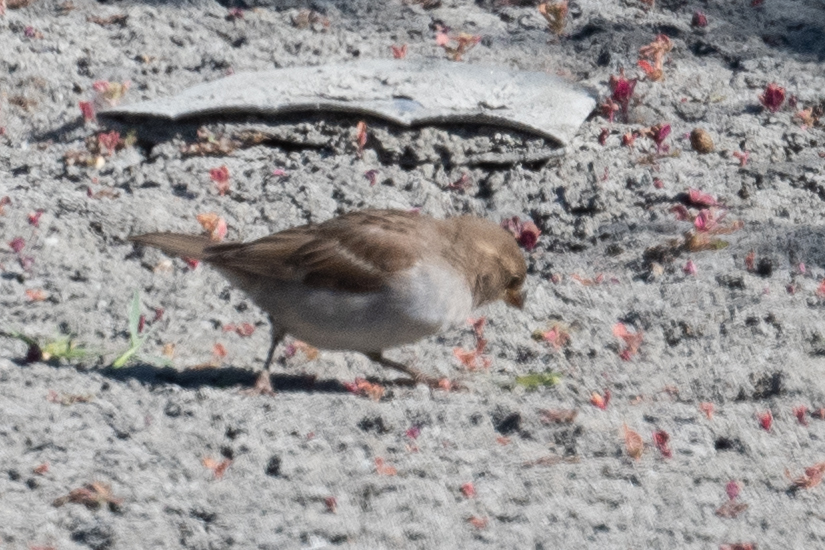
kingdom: Animalia
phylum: Chordata
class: Aves
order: Passeriformes
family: Passeridae
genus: Passer
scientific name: Passer domesticus
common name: House sparrow
